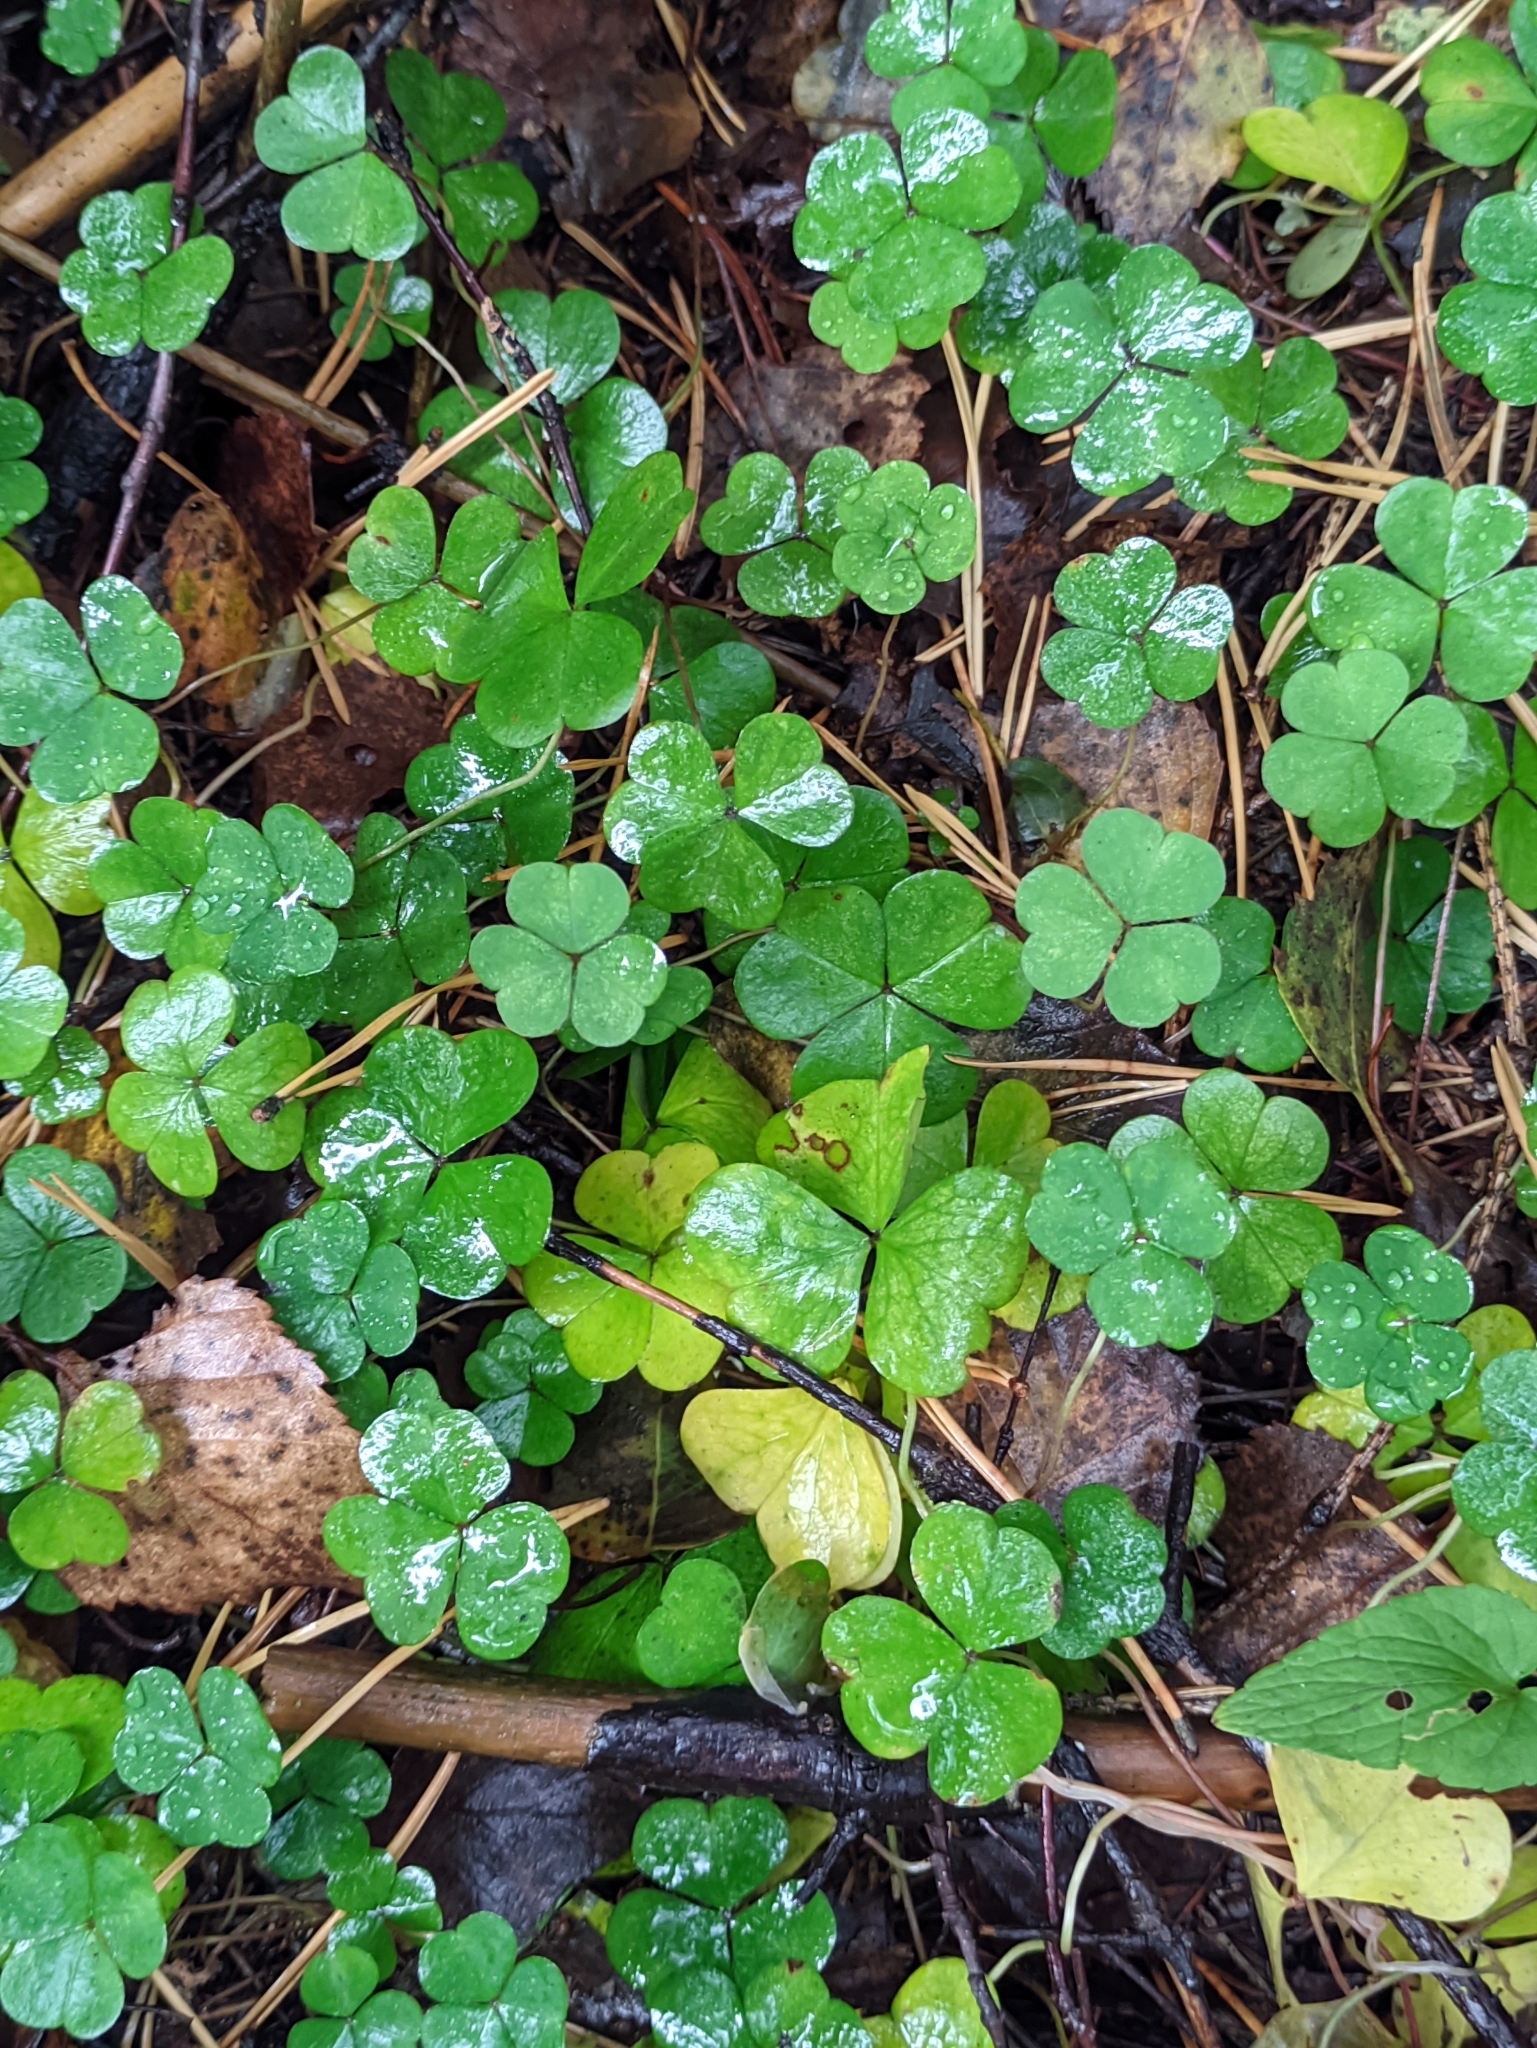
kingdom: Plantae
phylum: Tracheophyta
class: Magnoliopsida
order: Oxalidales
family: Oxalidaceae
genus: Oxalis
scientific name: Oxalis acetosella
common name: Wood-sorrel
